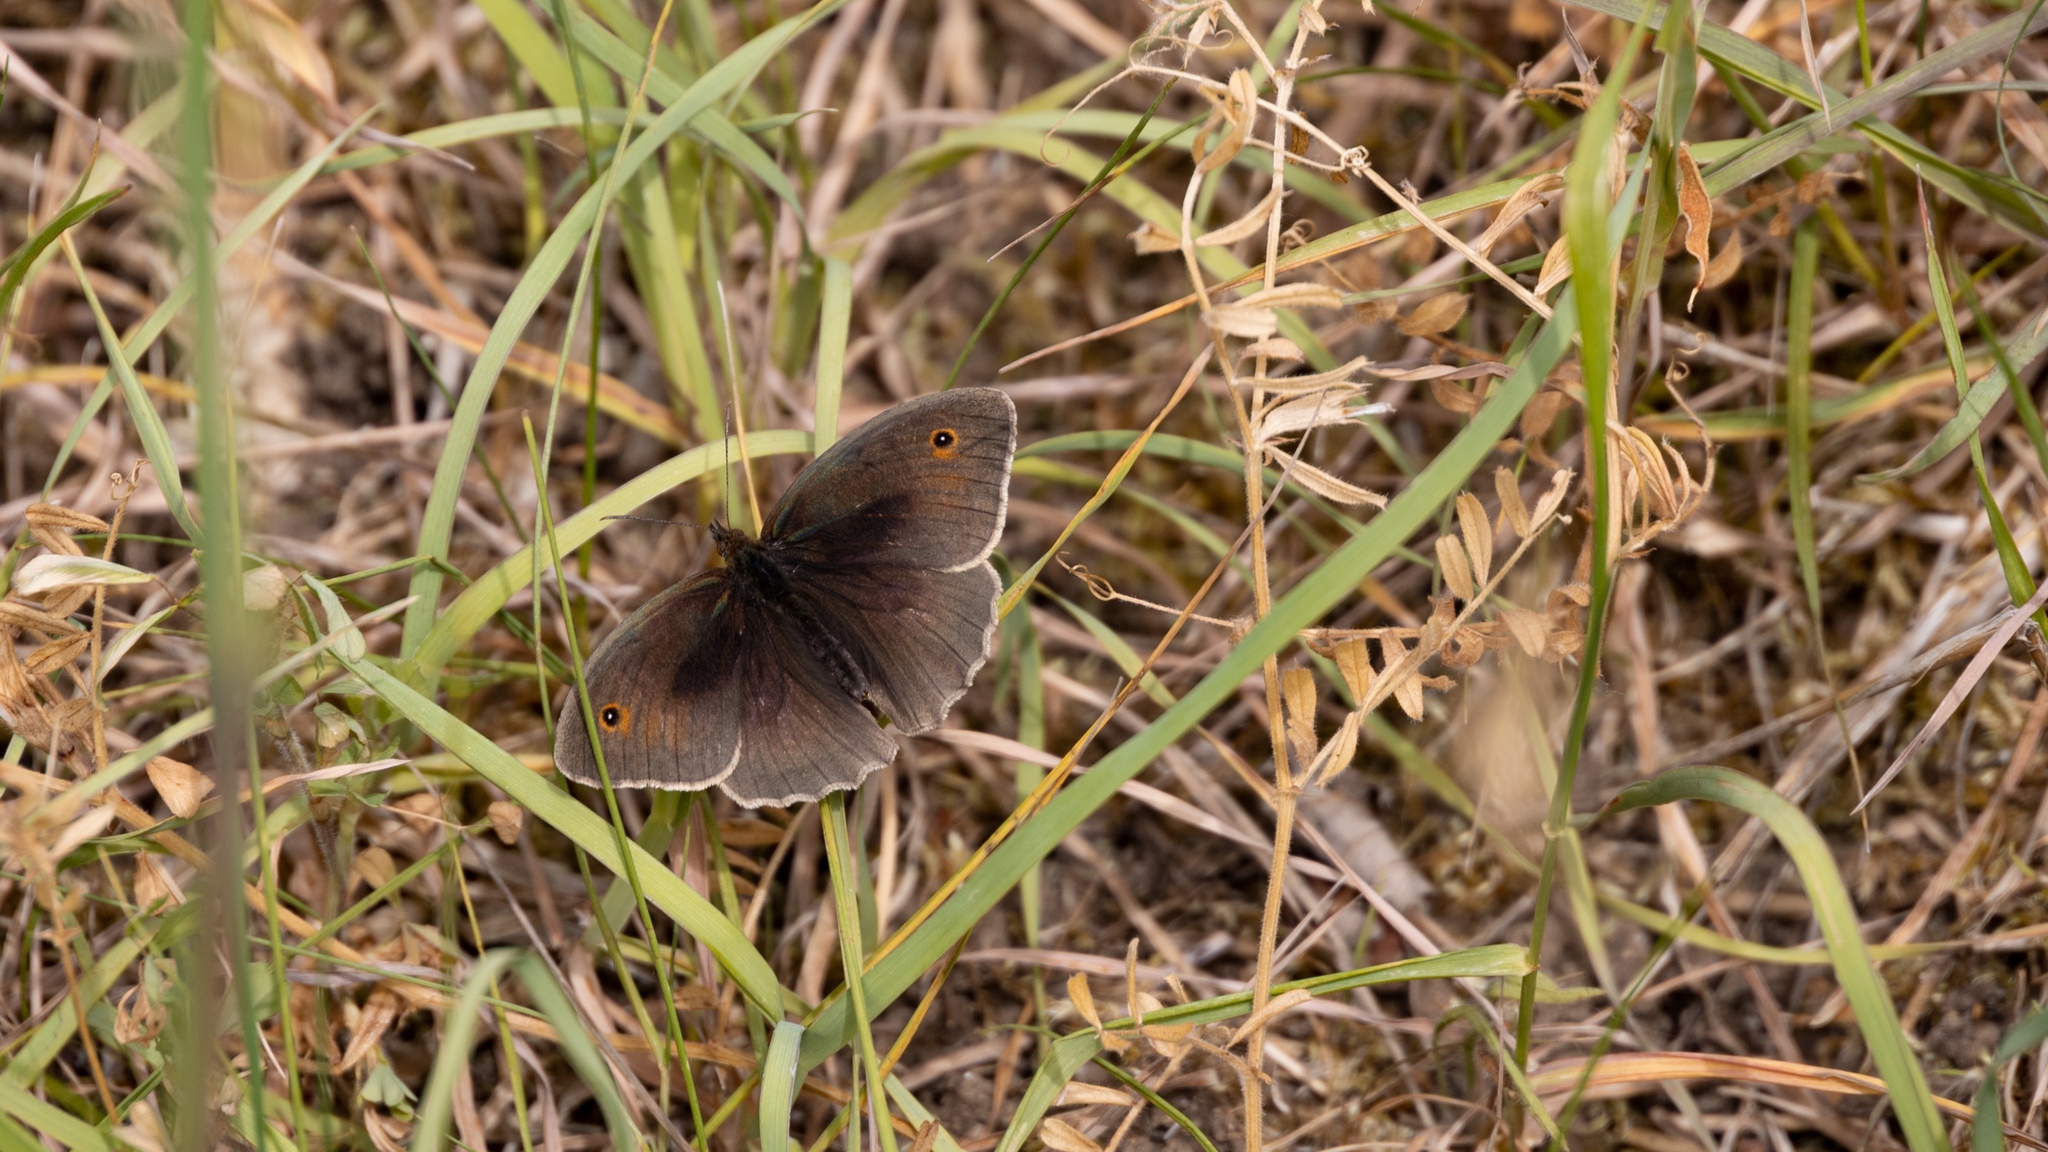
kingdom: Animalia
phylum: Arthropoda
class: Insecta
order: Lepidoptera
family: Nymphalidae
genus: Maniola
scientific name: Maniola jurtina
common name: Meadow brown
